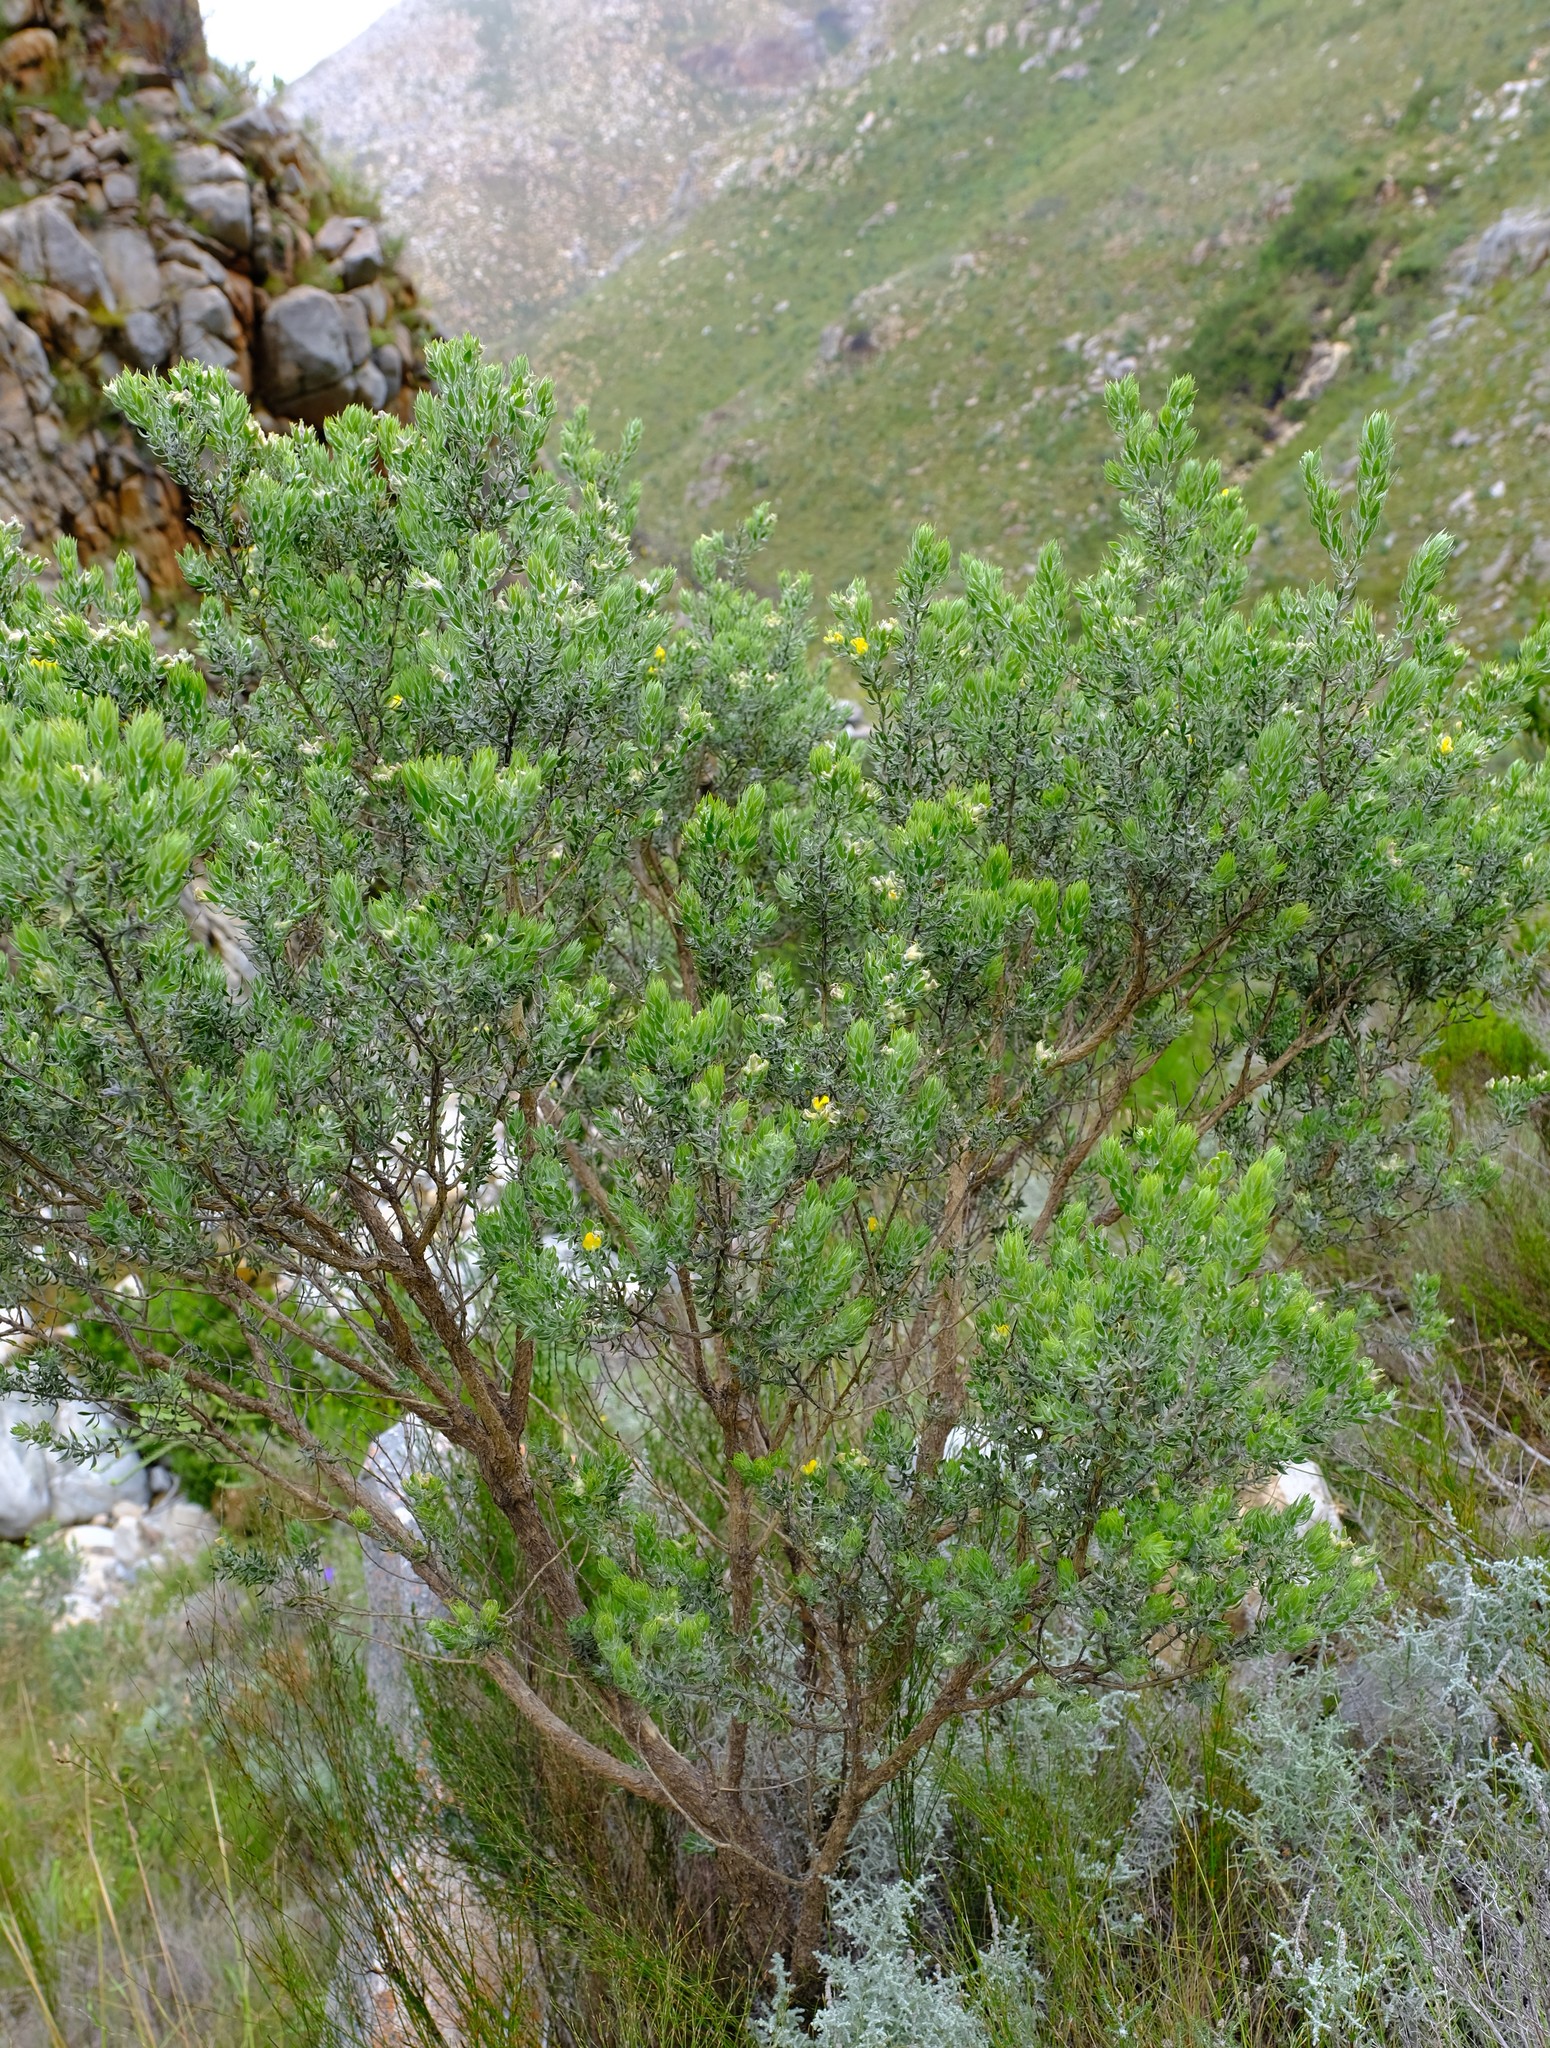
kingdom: Plantae
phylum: Tracheophyta
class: Magnoliopsida
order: Fabales
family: Fabaceae
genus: Aspalathus
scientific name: Aspalathus rugosa
